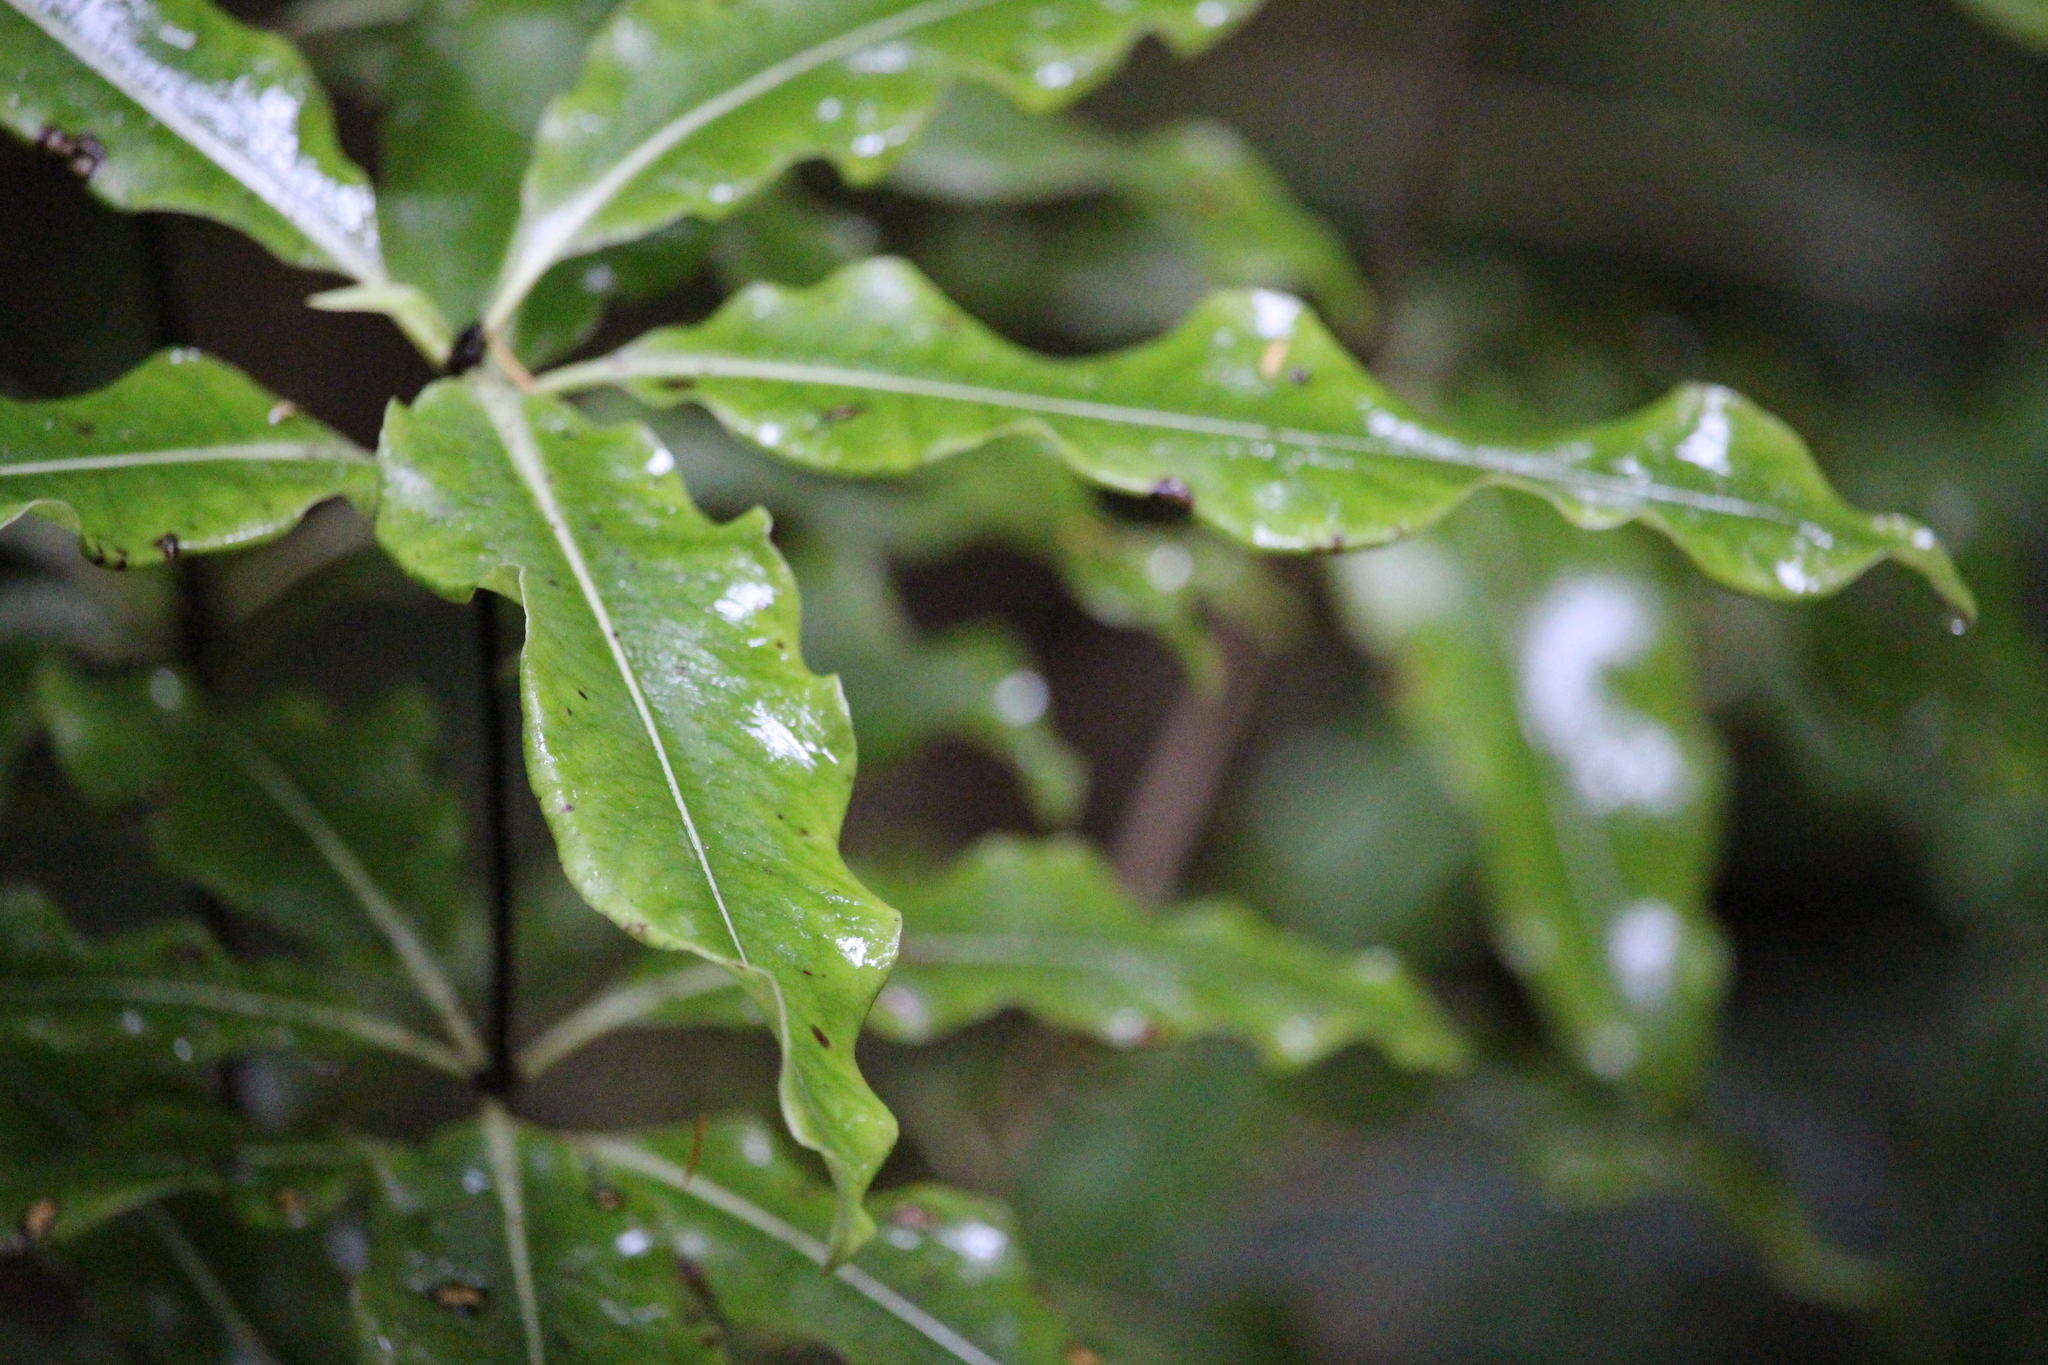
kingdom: Plantae
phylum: Tracheophyta
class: Magnoliopsida
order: Apiales
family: Pittosporaceae
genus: Pittosporum
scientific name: Pittosporum eugenioides
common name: Lemonwood
